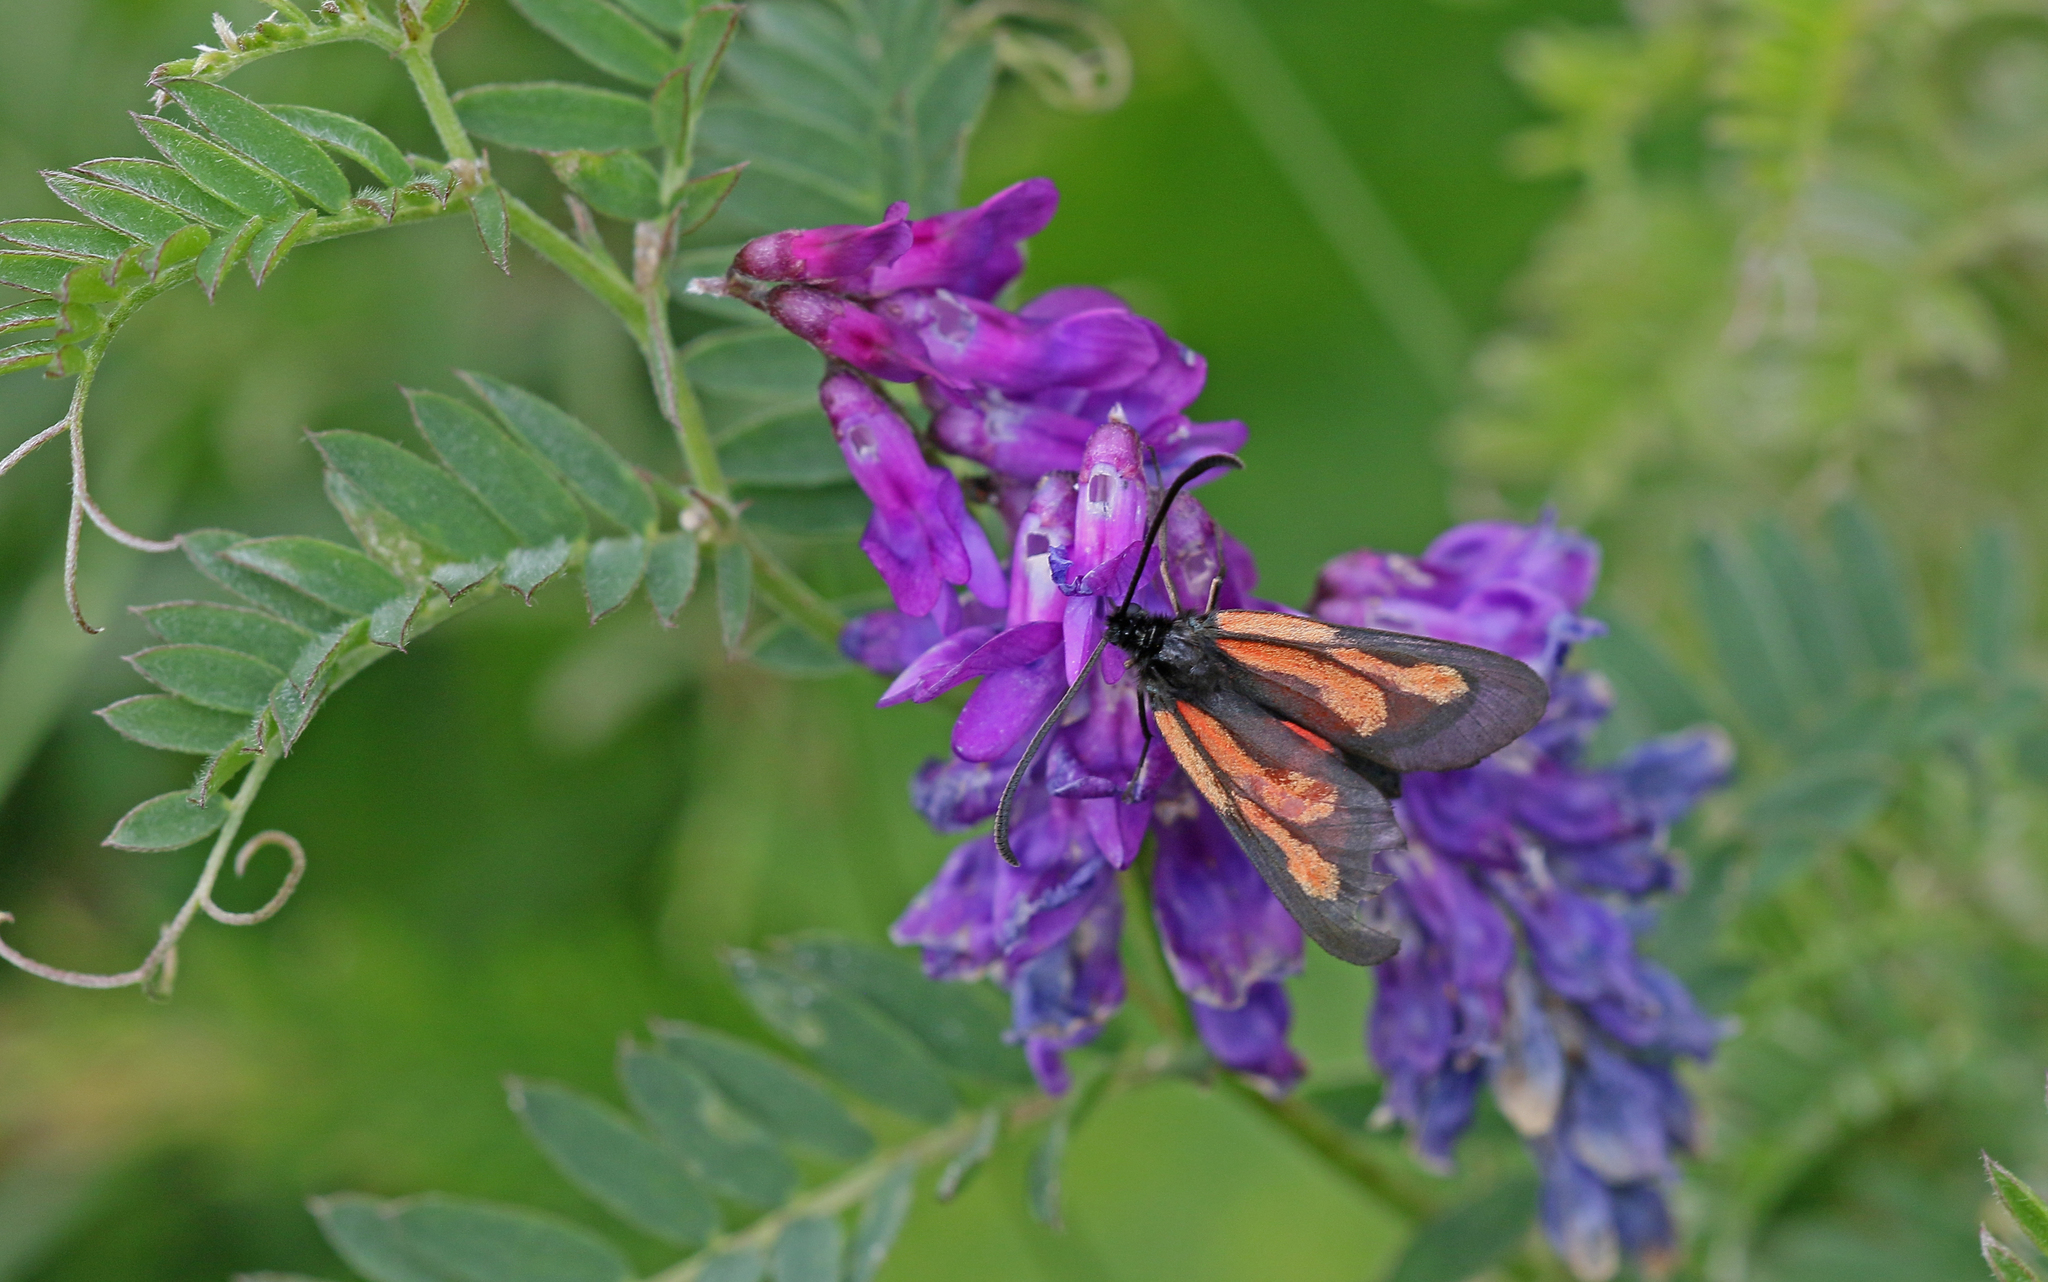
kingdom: Animalia
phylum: Arthropoda
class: Insecta
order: Lepidoptera
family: Zygaenidae
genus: Zygaena
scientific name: Zygaena osterodensis
